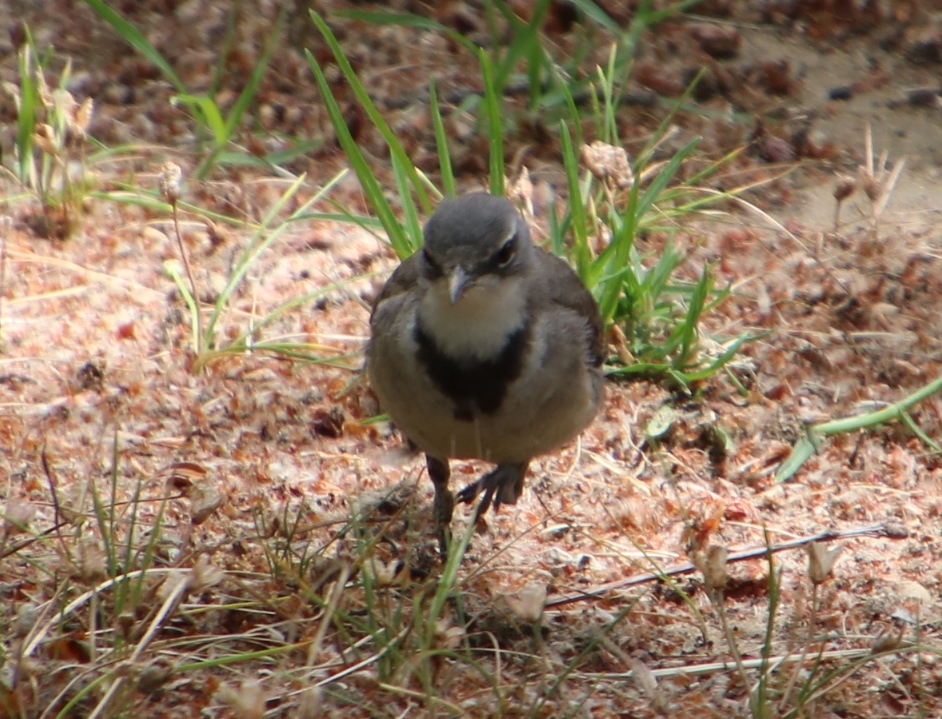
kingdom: Animalia
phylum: Chordata
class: Aves
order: Passeriformes
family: Motacillidae
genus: Motacilla
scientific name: Motacilla capensis
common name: Cape wagtail
